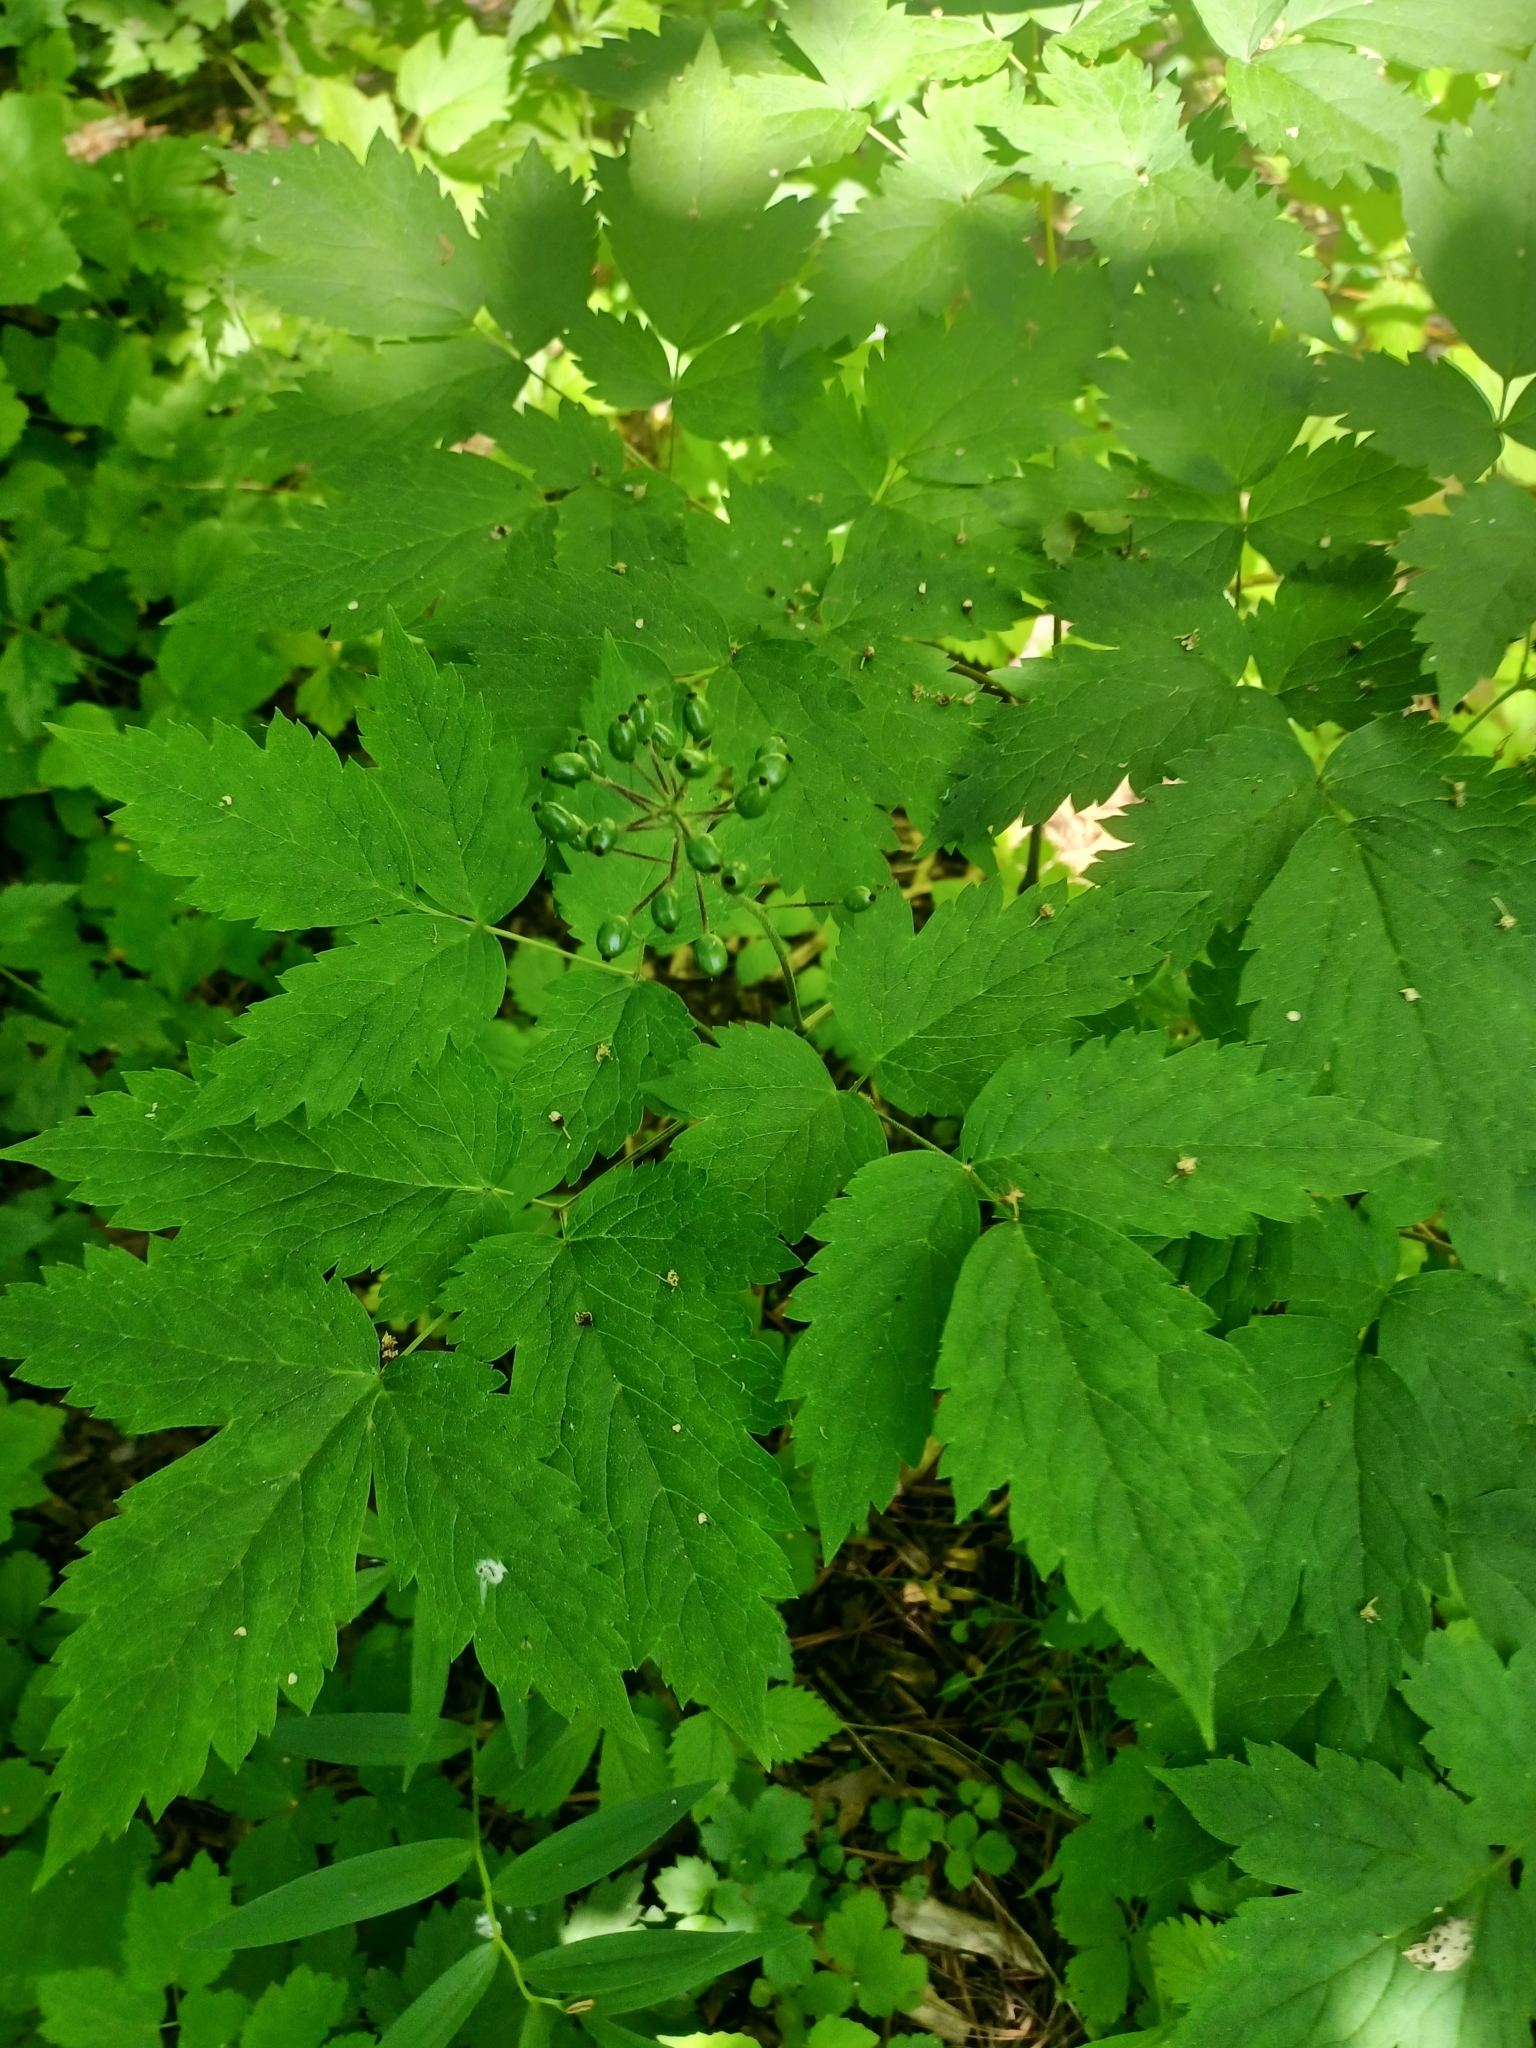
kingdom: Plantae
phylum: Tracheophyta
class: Magnoliopsida
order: Ranunculales
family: Ranunculaceae
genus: Actaea
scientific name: Actaea rubra
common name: Red baneberry
